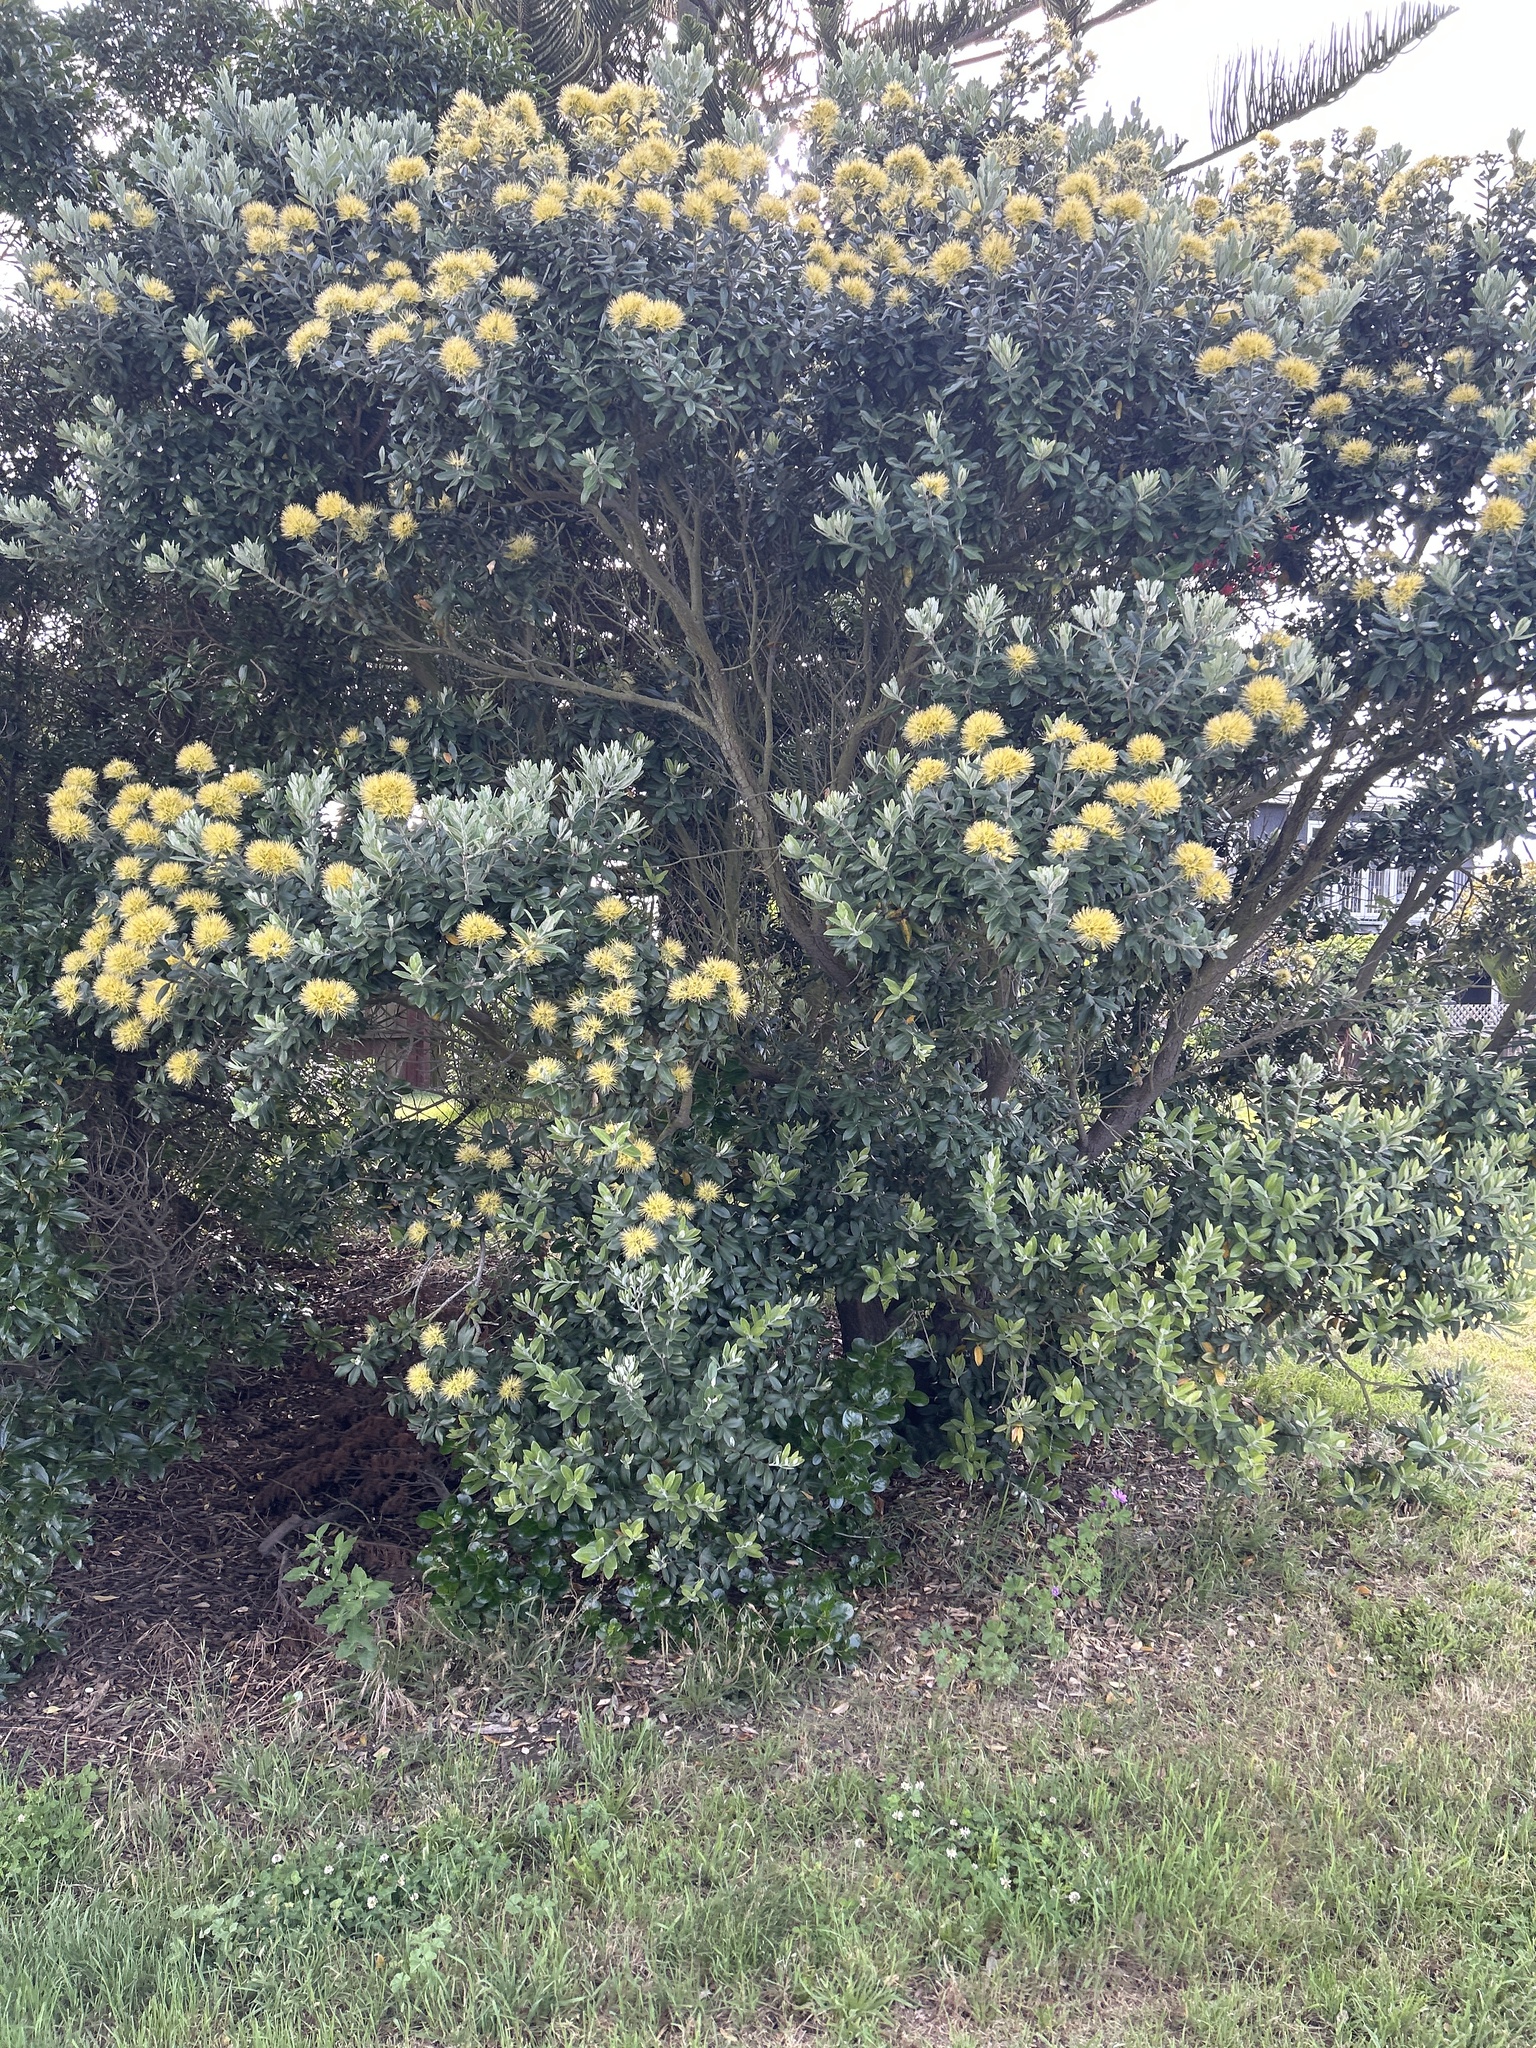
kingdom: Plantae
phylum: Tracheophyta
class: Magnoliopsida
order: Myrtales
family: Myrtaceae
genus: Metrosideros
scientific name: Metrosideros excelsa
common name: New zealand christmastree
